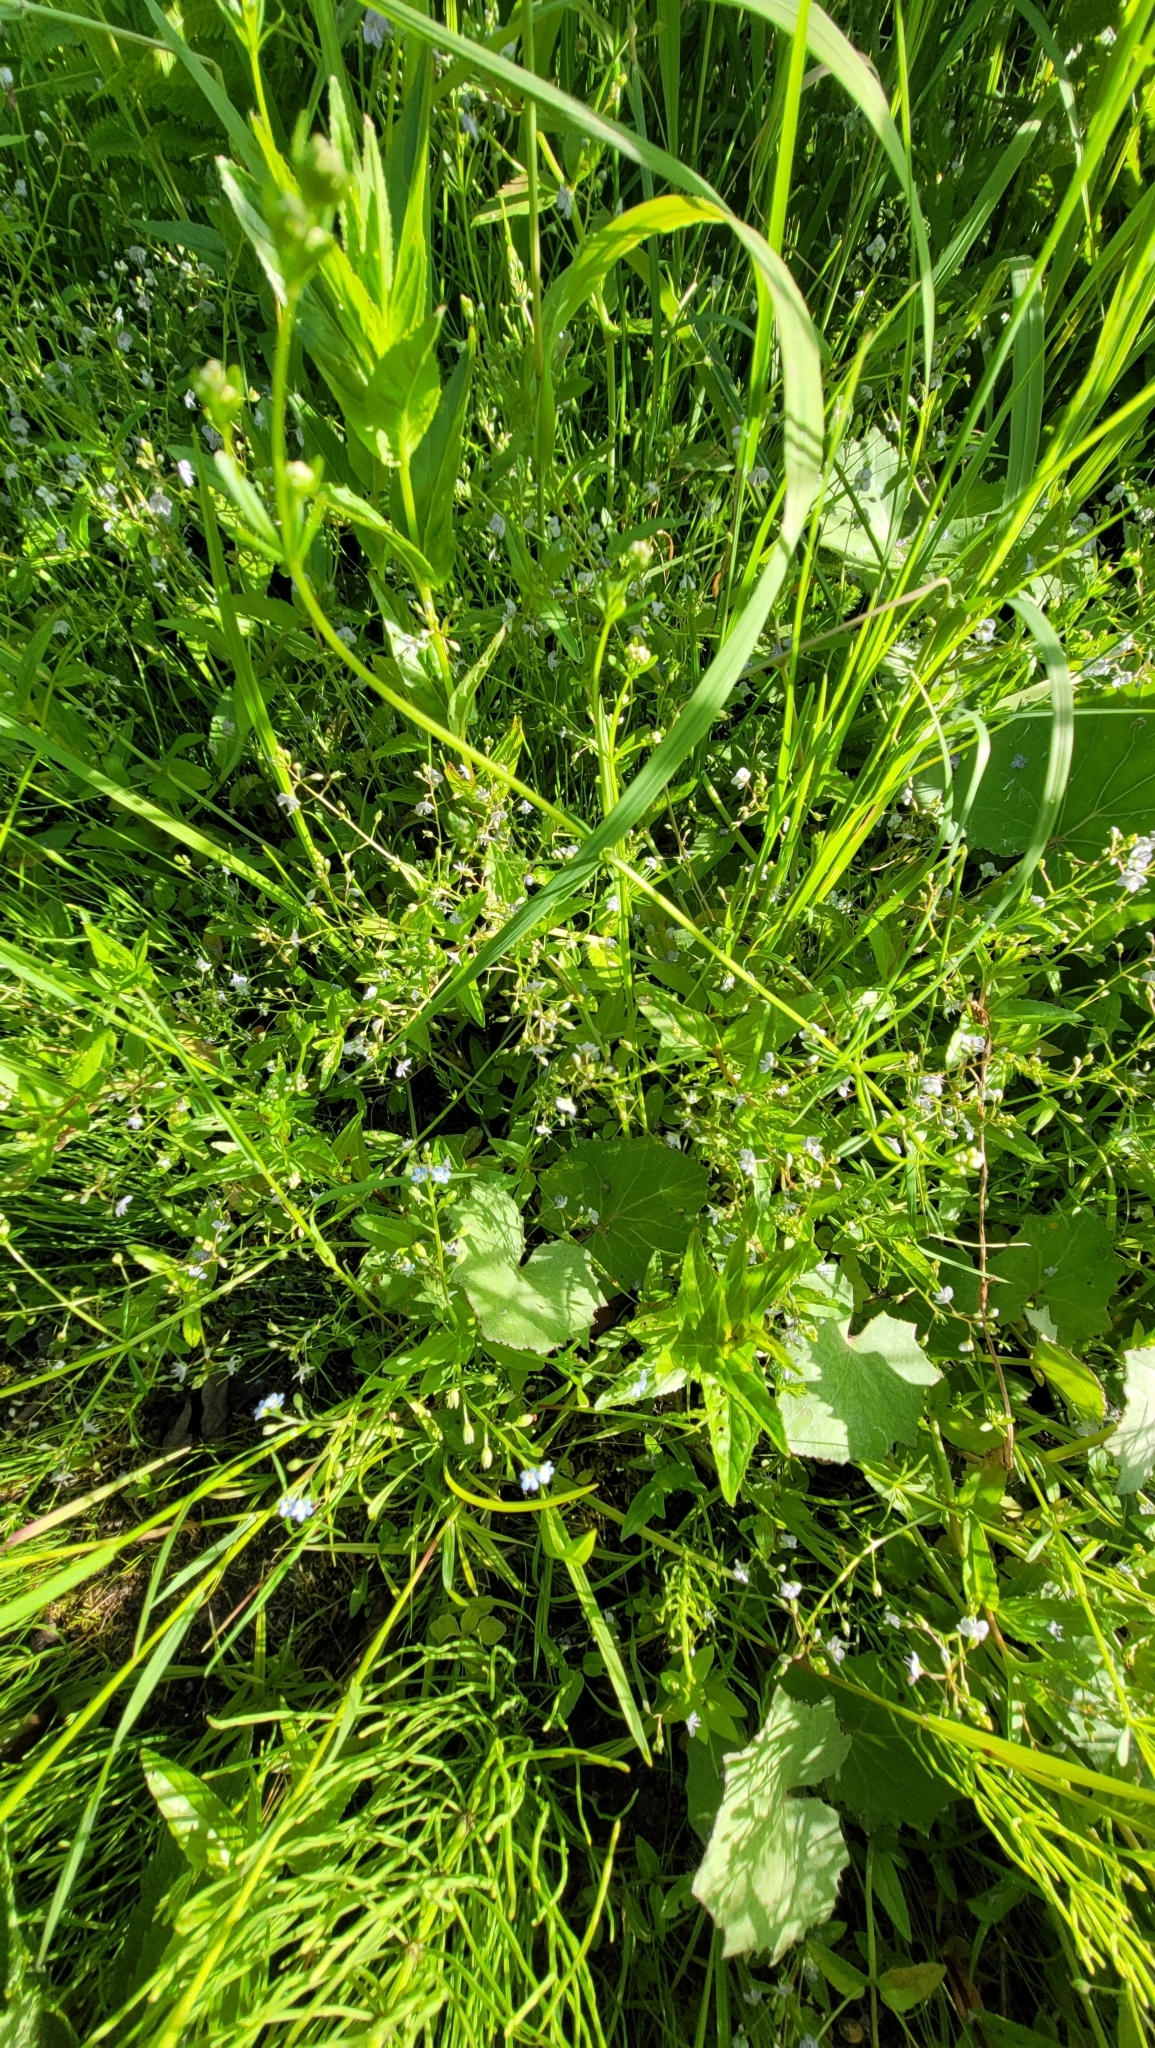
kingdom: Plantae
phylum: Tracheophyta
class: Magnoliopsida
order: Lamiales
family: Plantaginaceae
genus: Veronica
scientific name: Veronica americana
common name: American brooklime
